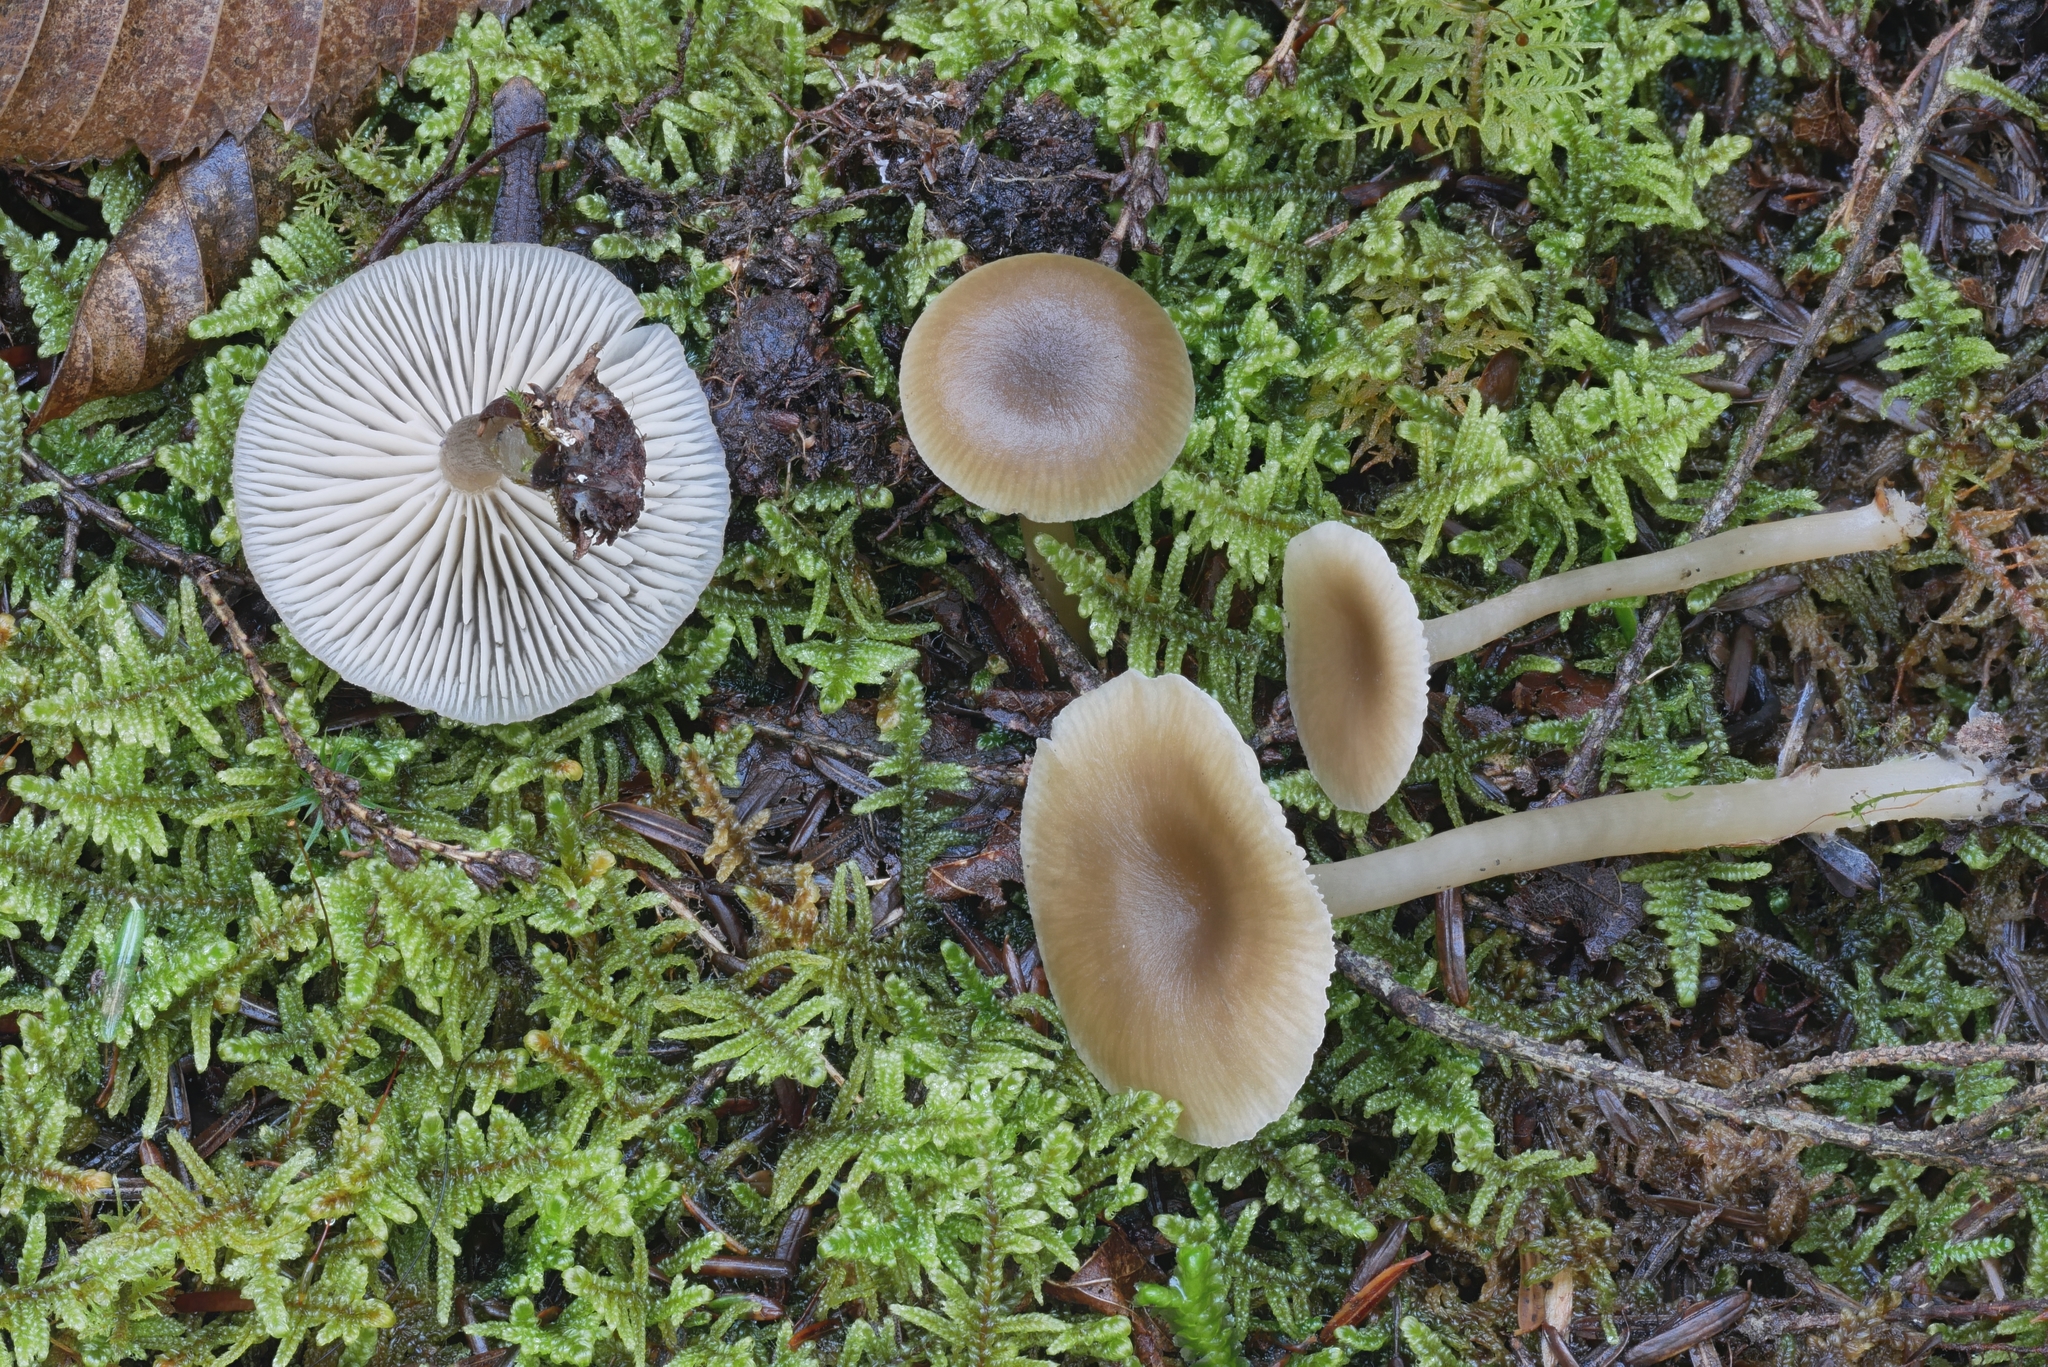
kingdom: Fungi
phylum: Basidiomycota
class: Agaricomycetes
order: Agaricales
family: Tricholomataceae
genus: Clitocybe
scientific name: Clitocybe subditopoda
